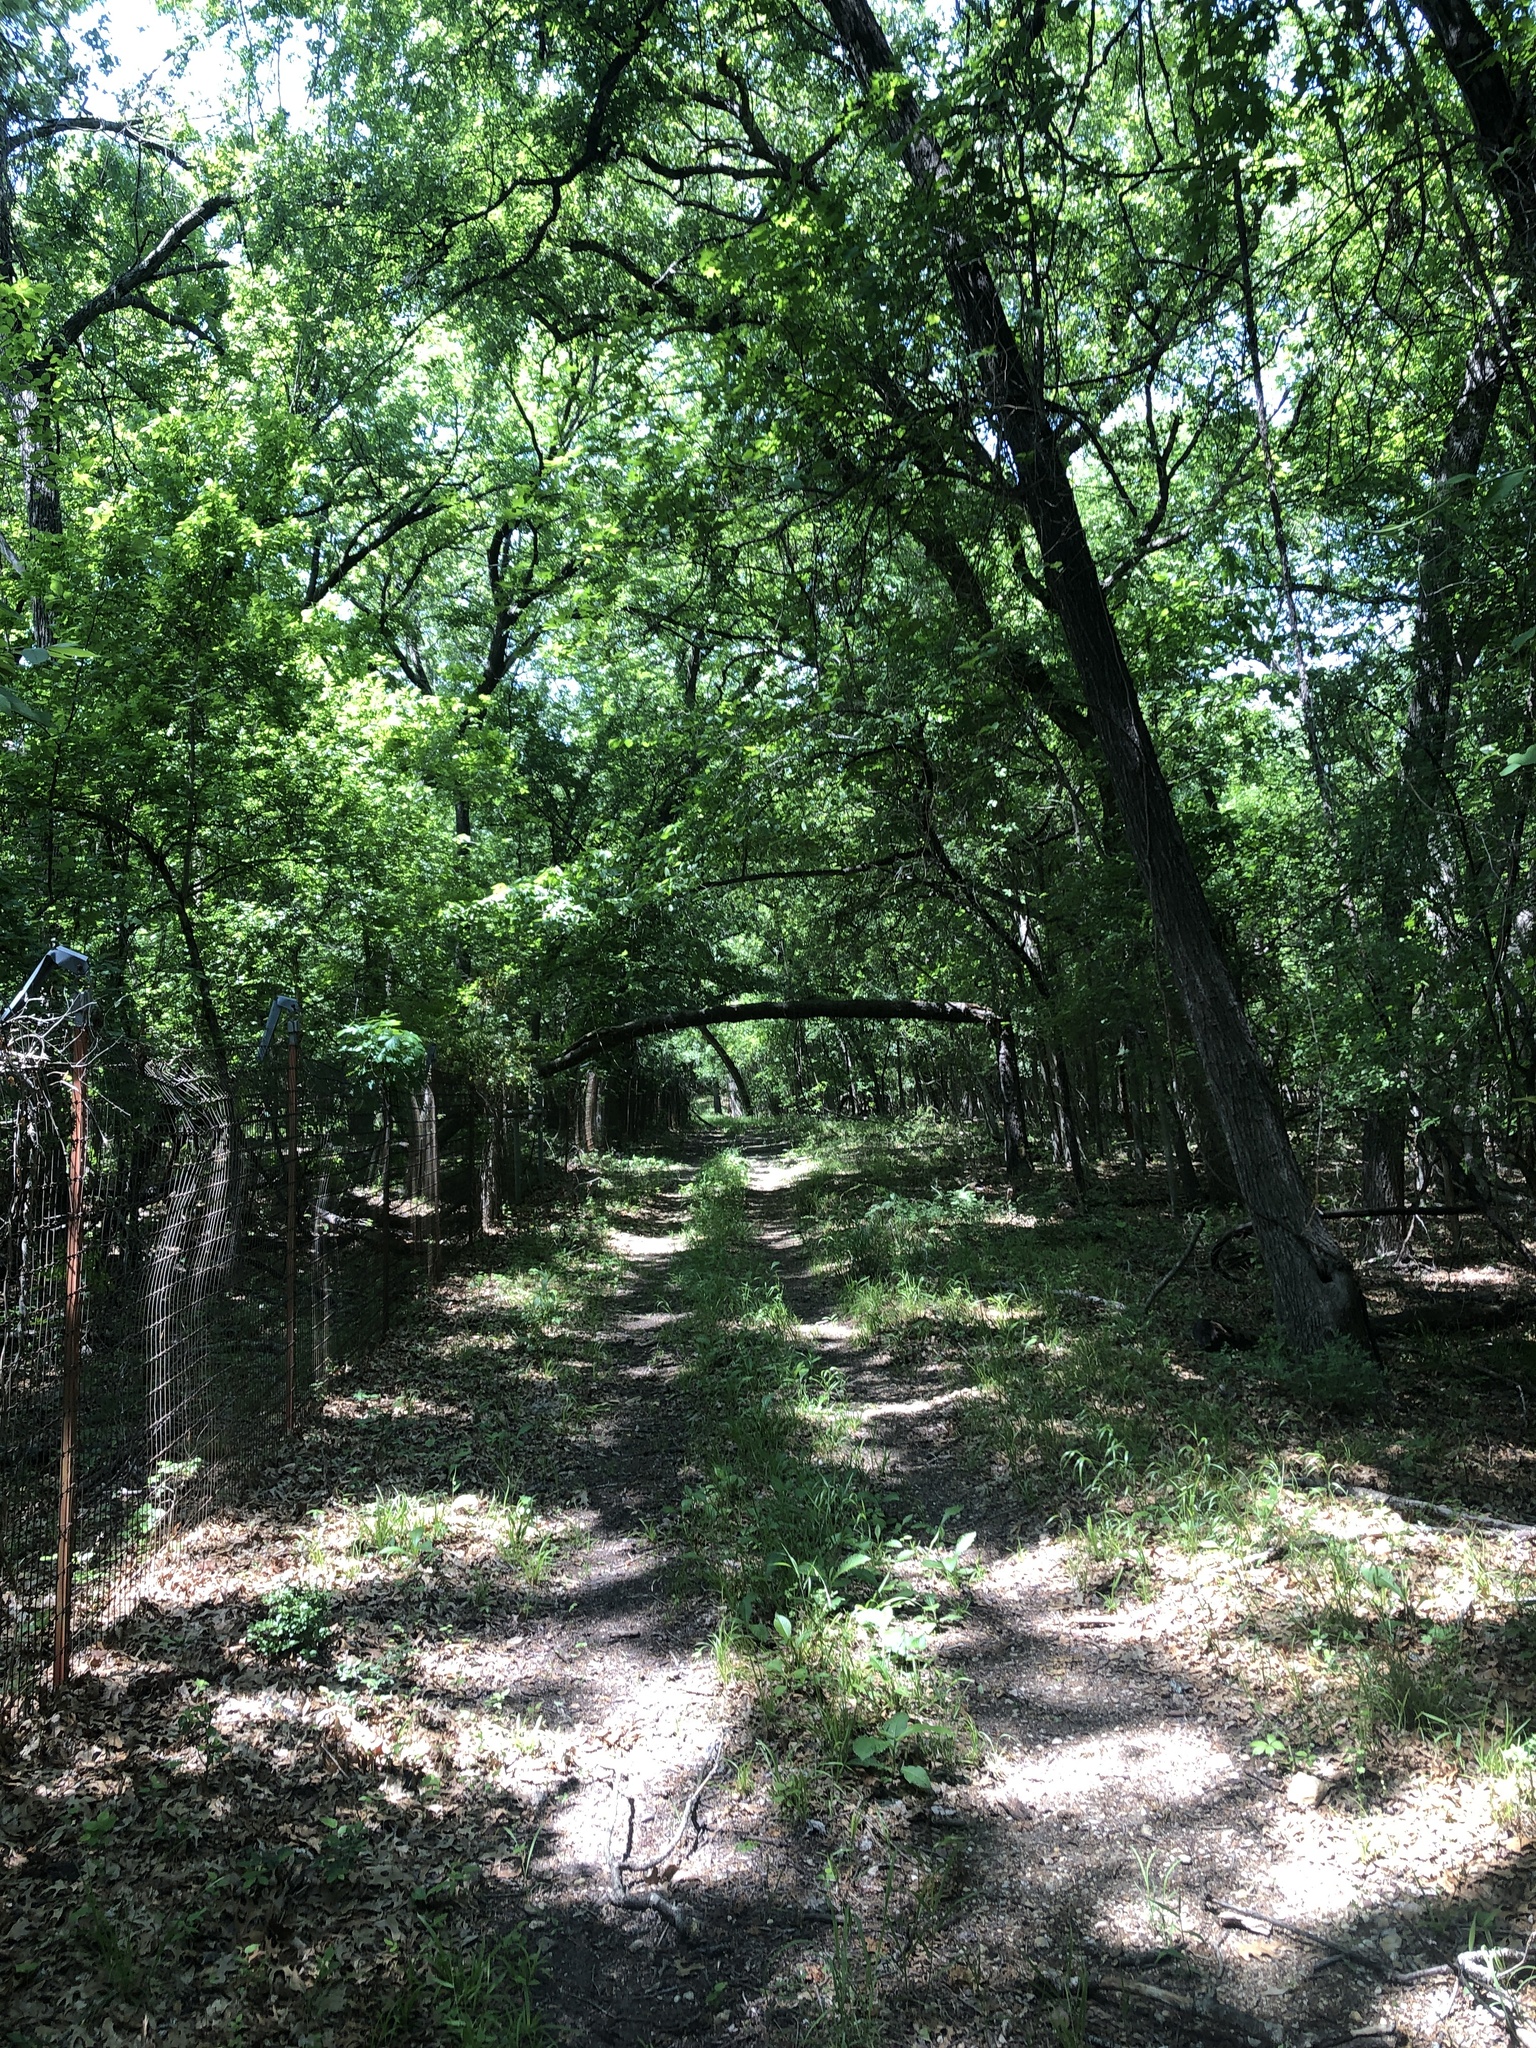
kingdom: Animalia
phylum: Chordata
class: Aves
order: Passeriformes
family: Paridae
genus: Baeolophus
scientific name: Baeolophus bicolor
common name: Tufted titmouse
